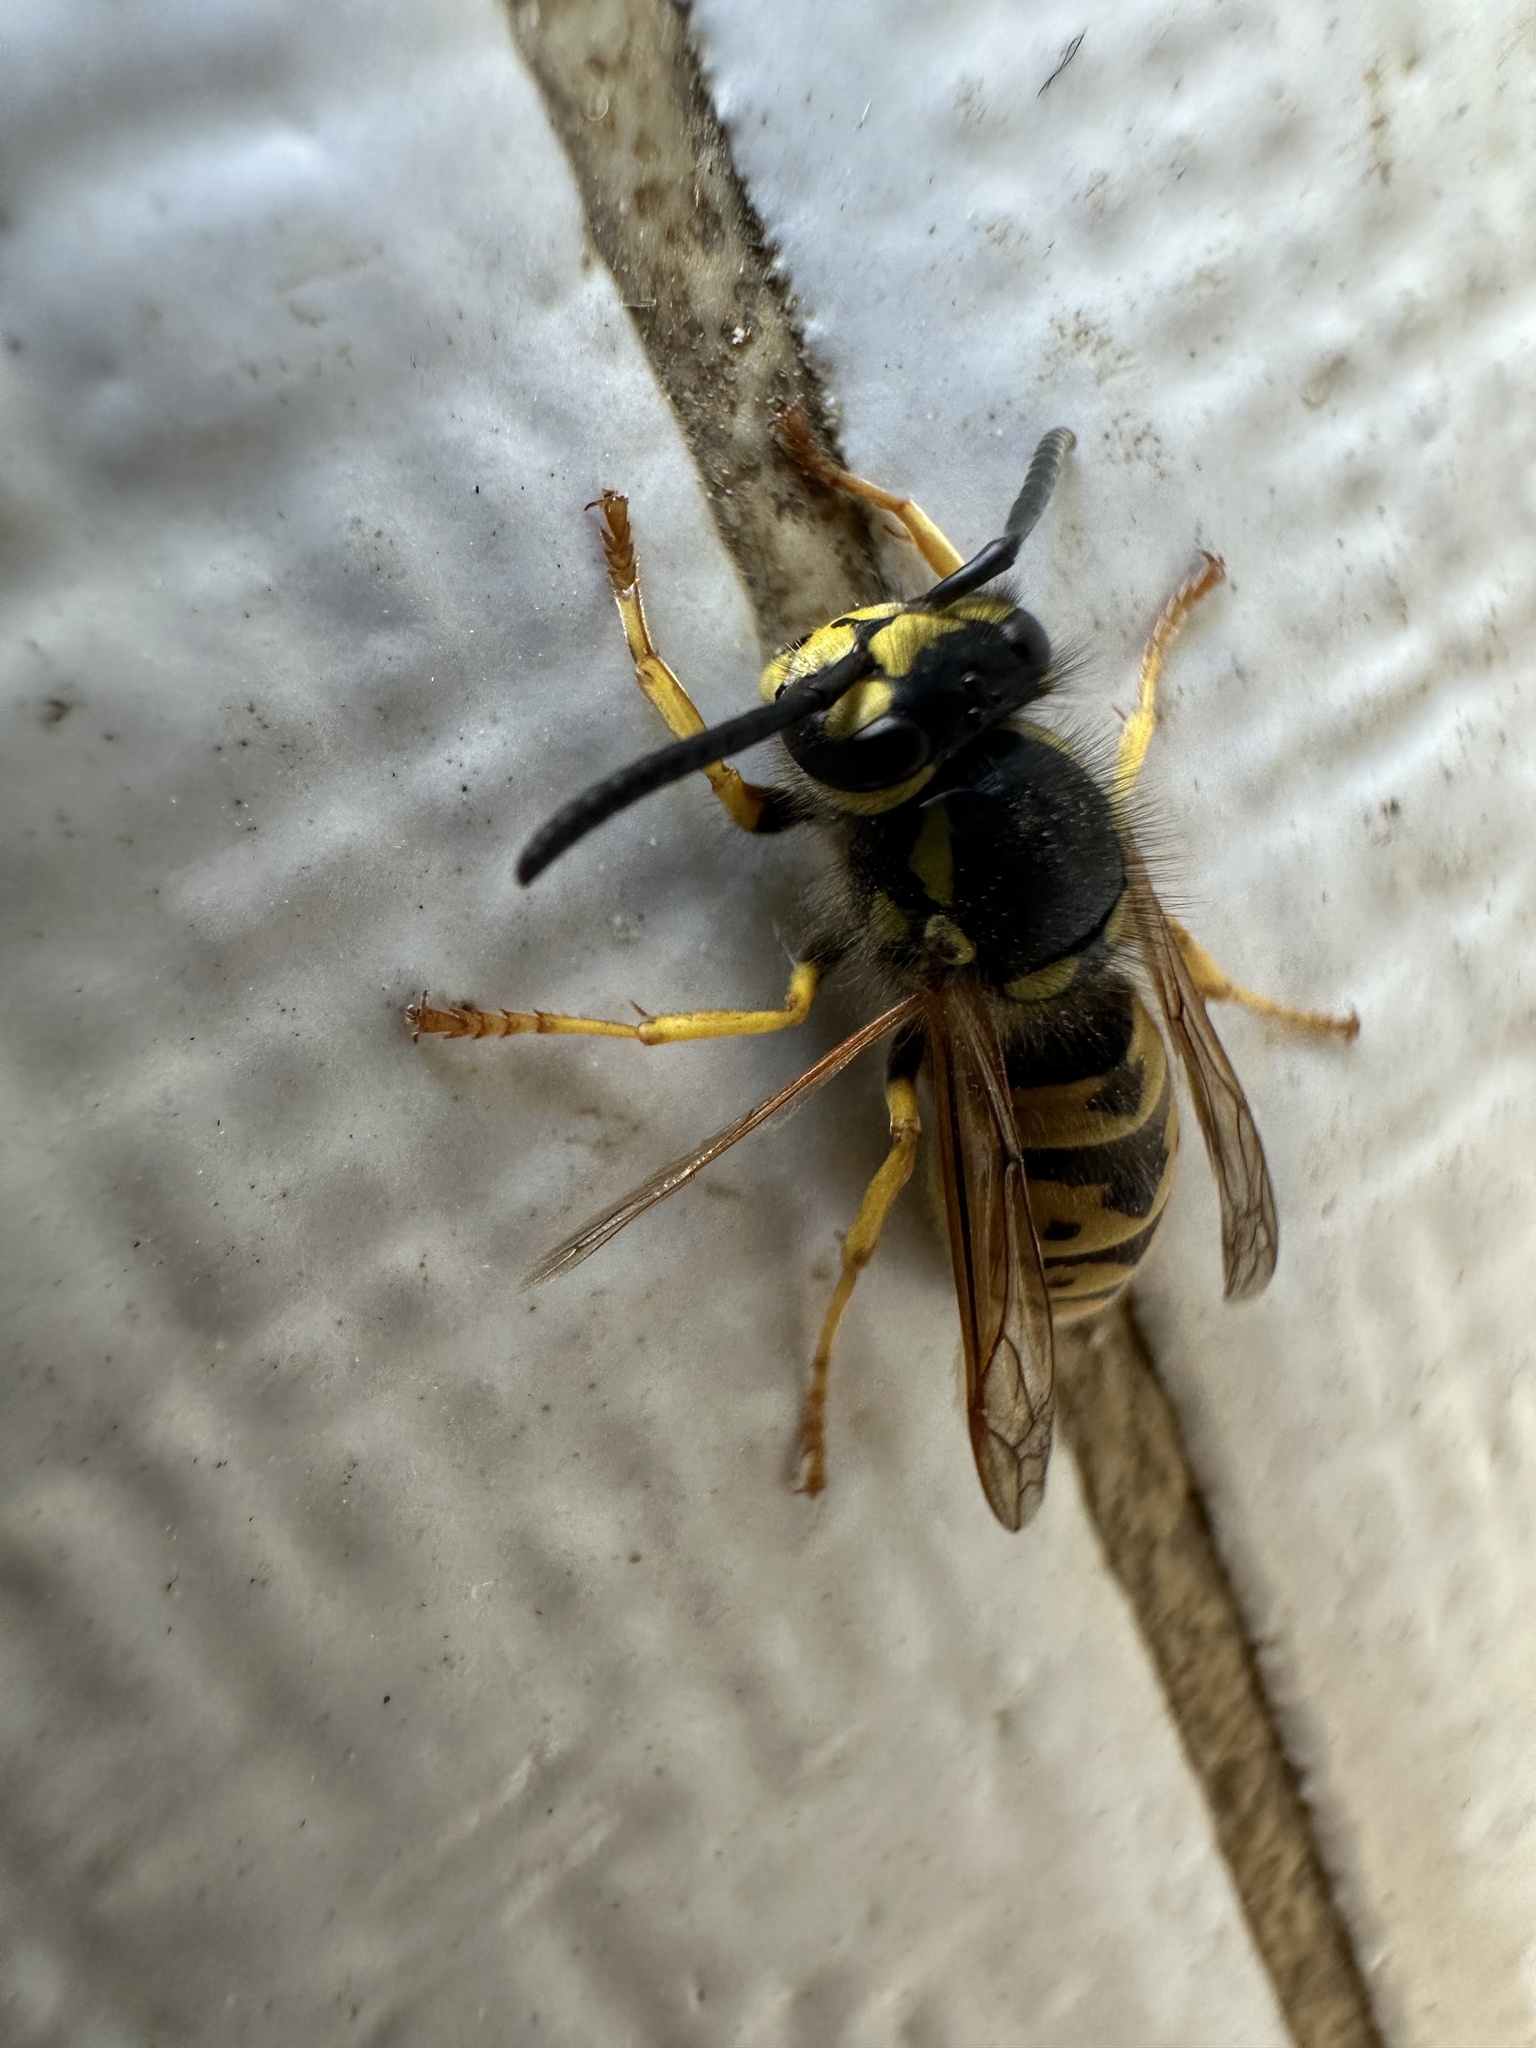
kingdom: Animalia
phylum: Arthropoda
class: Insecta
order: Hymenoptera
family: Vespidae
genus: Vespula
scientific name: Vespula germanica
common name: German wasp
